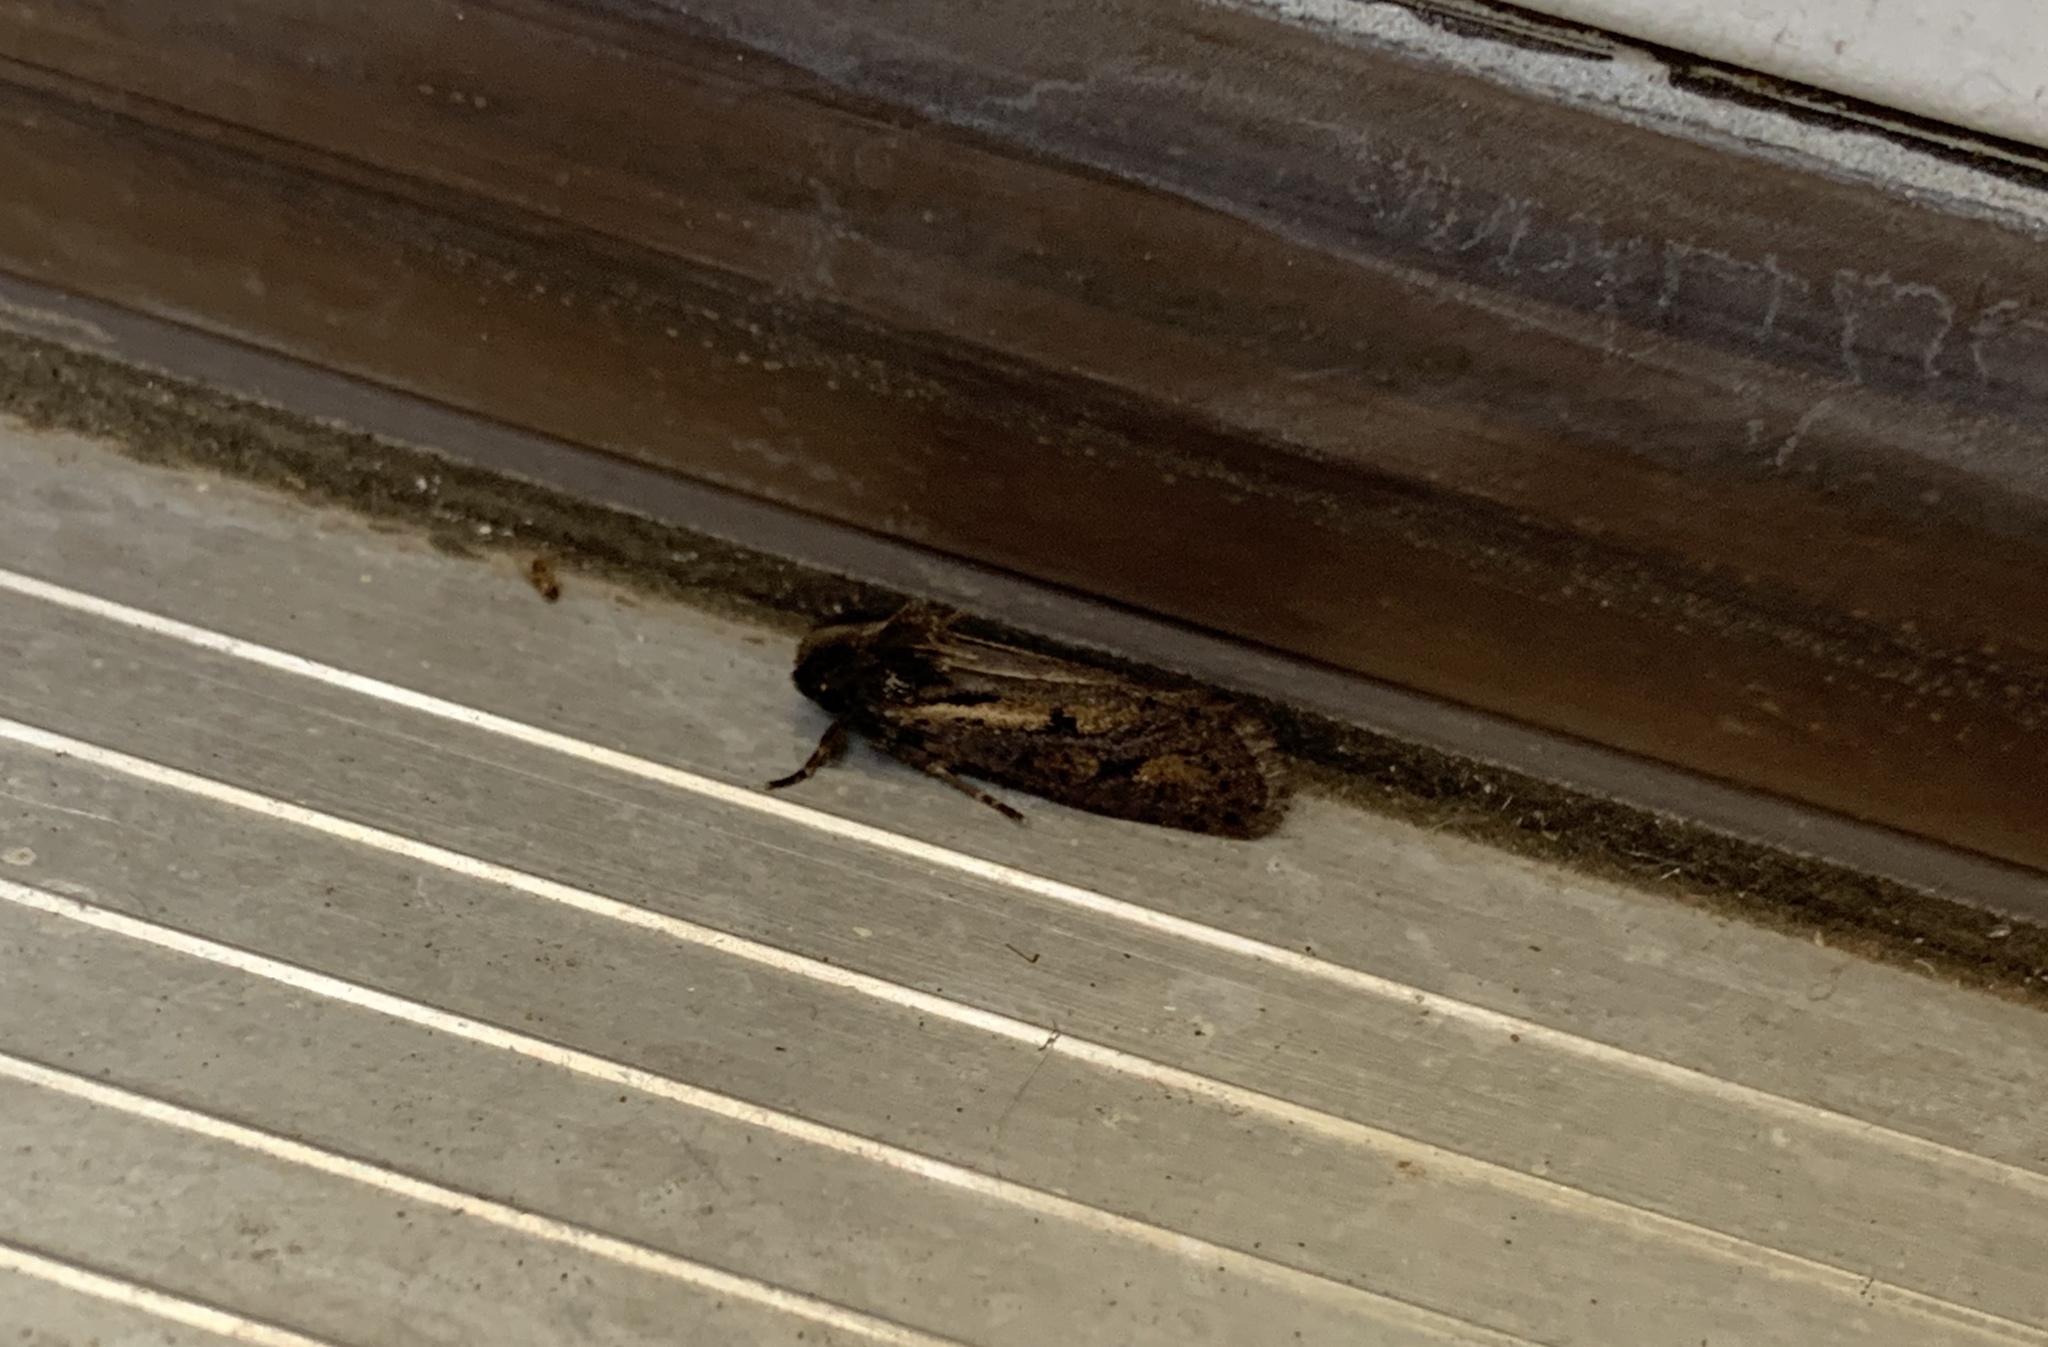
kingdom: Animalia
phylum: Arthropoda
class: Insecta
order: Lepidoptera
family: Tineidae
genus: Acrolophus
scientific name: Acrolophus popeanella
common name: Clemens' grass tubeworm moth
